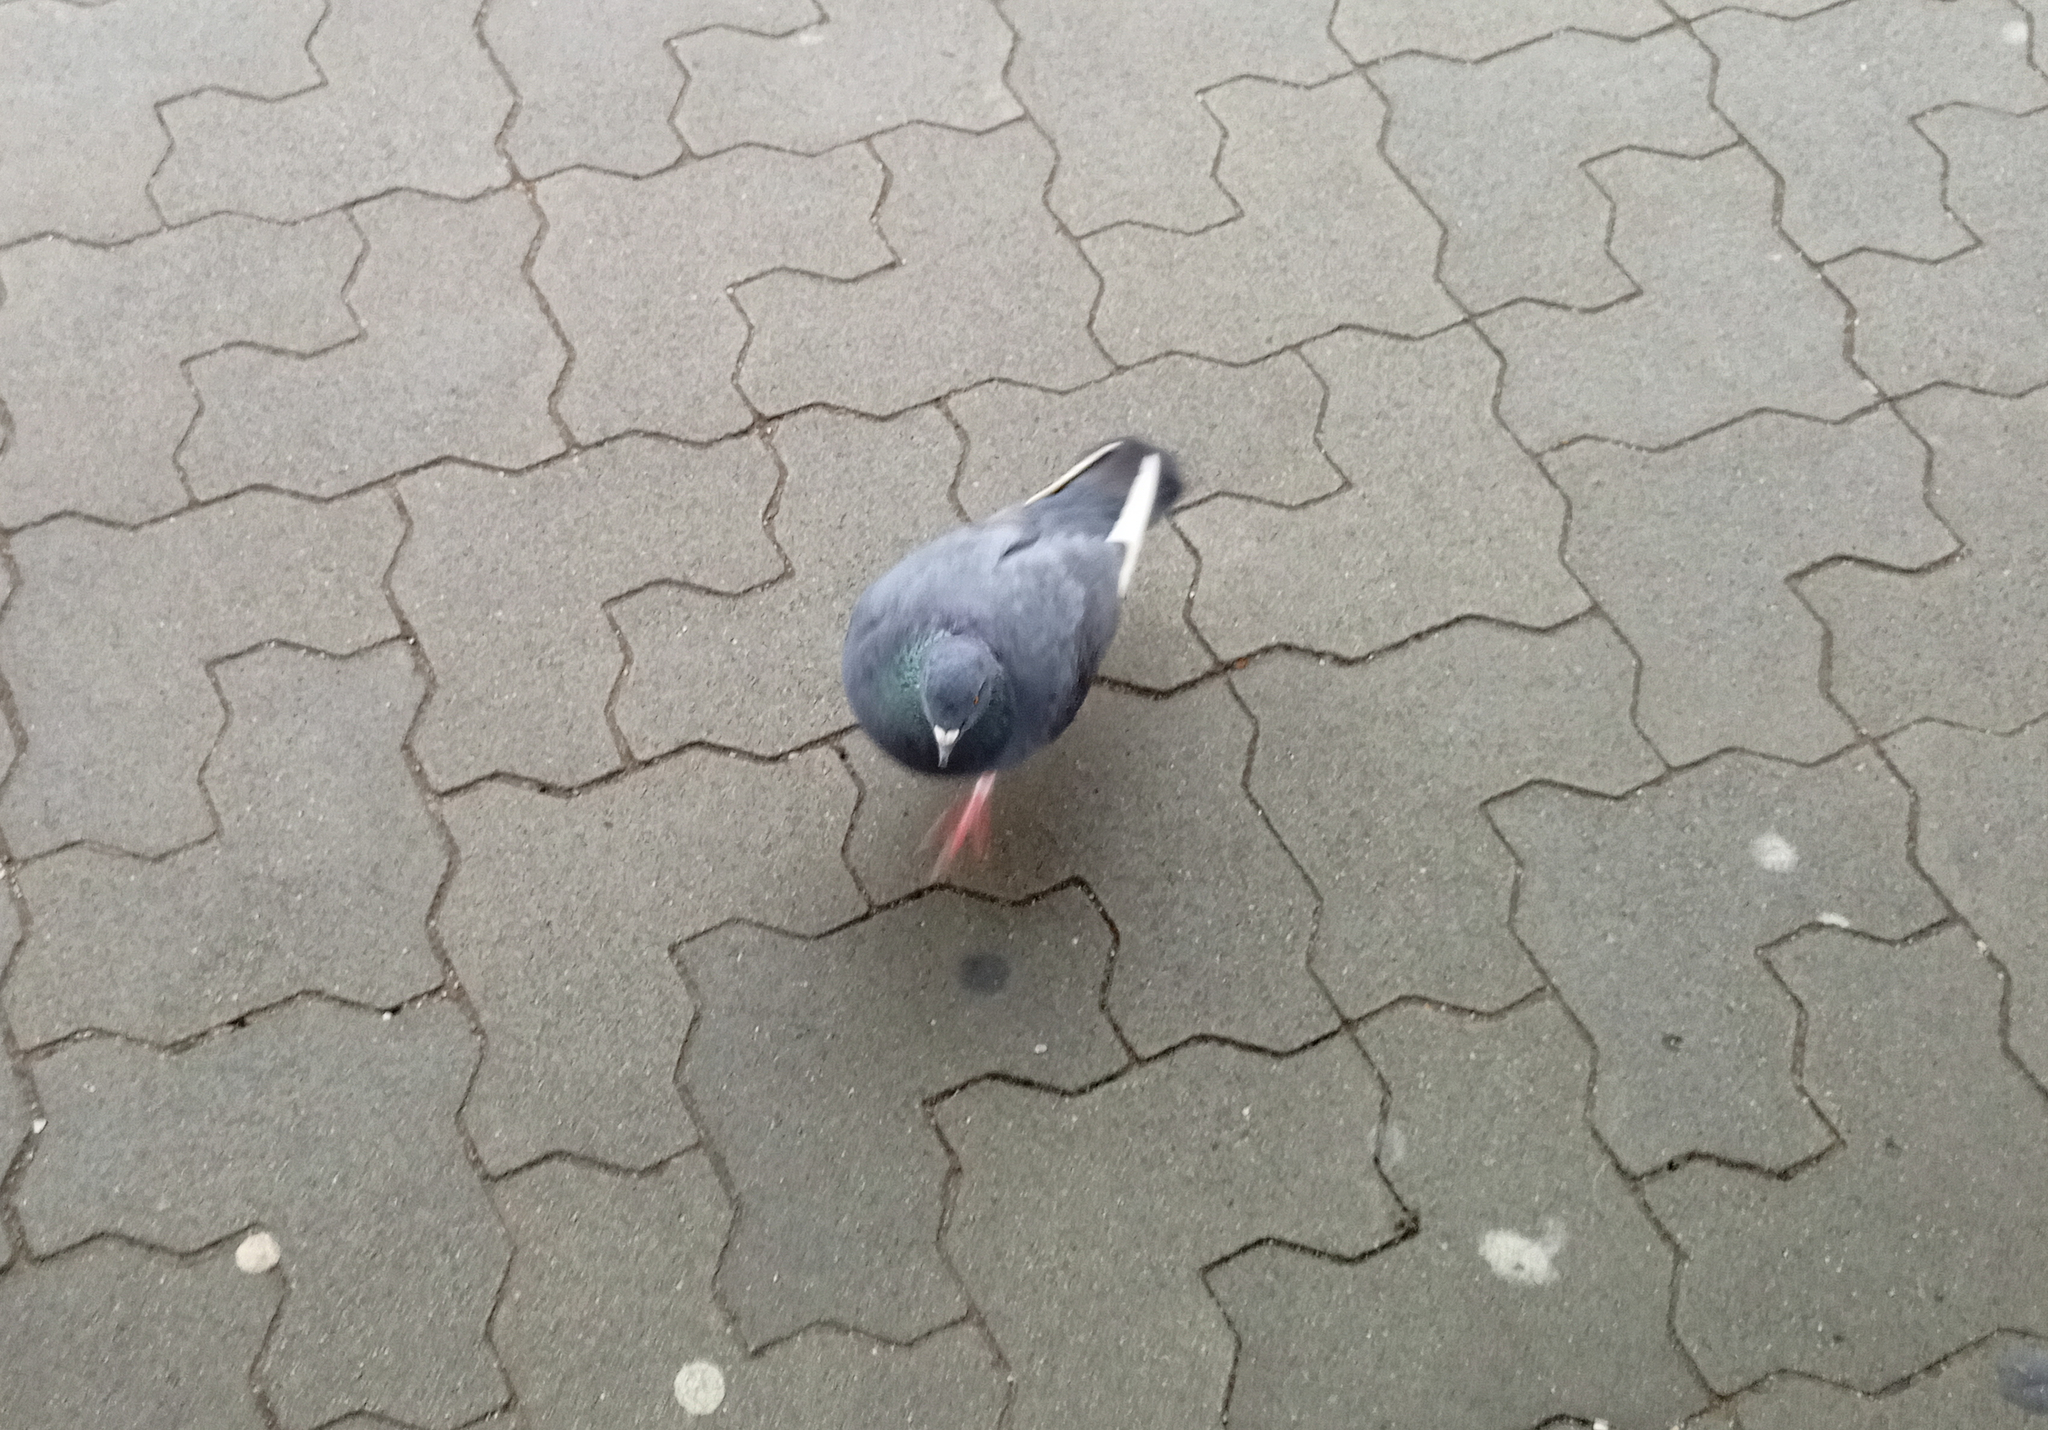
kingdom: Animalia
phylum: Chordata
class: Aves
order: Columbiformes
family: Columbidae
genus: Columba
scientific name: Columba livia
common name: Rock pigeon
